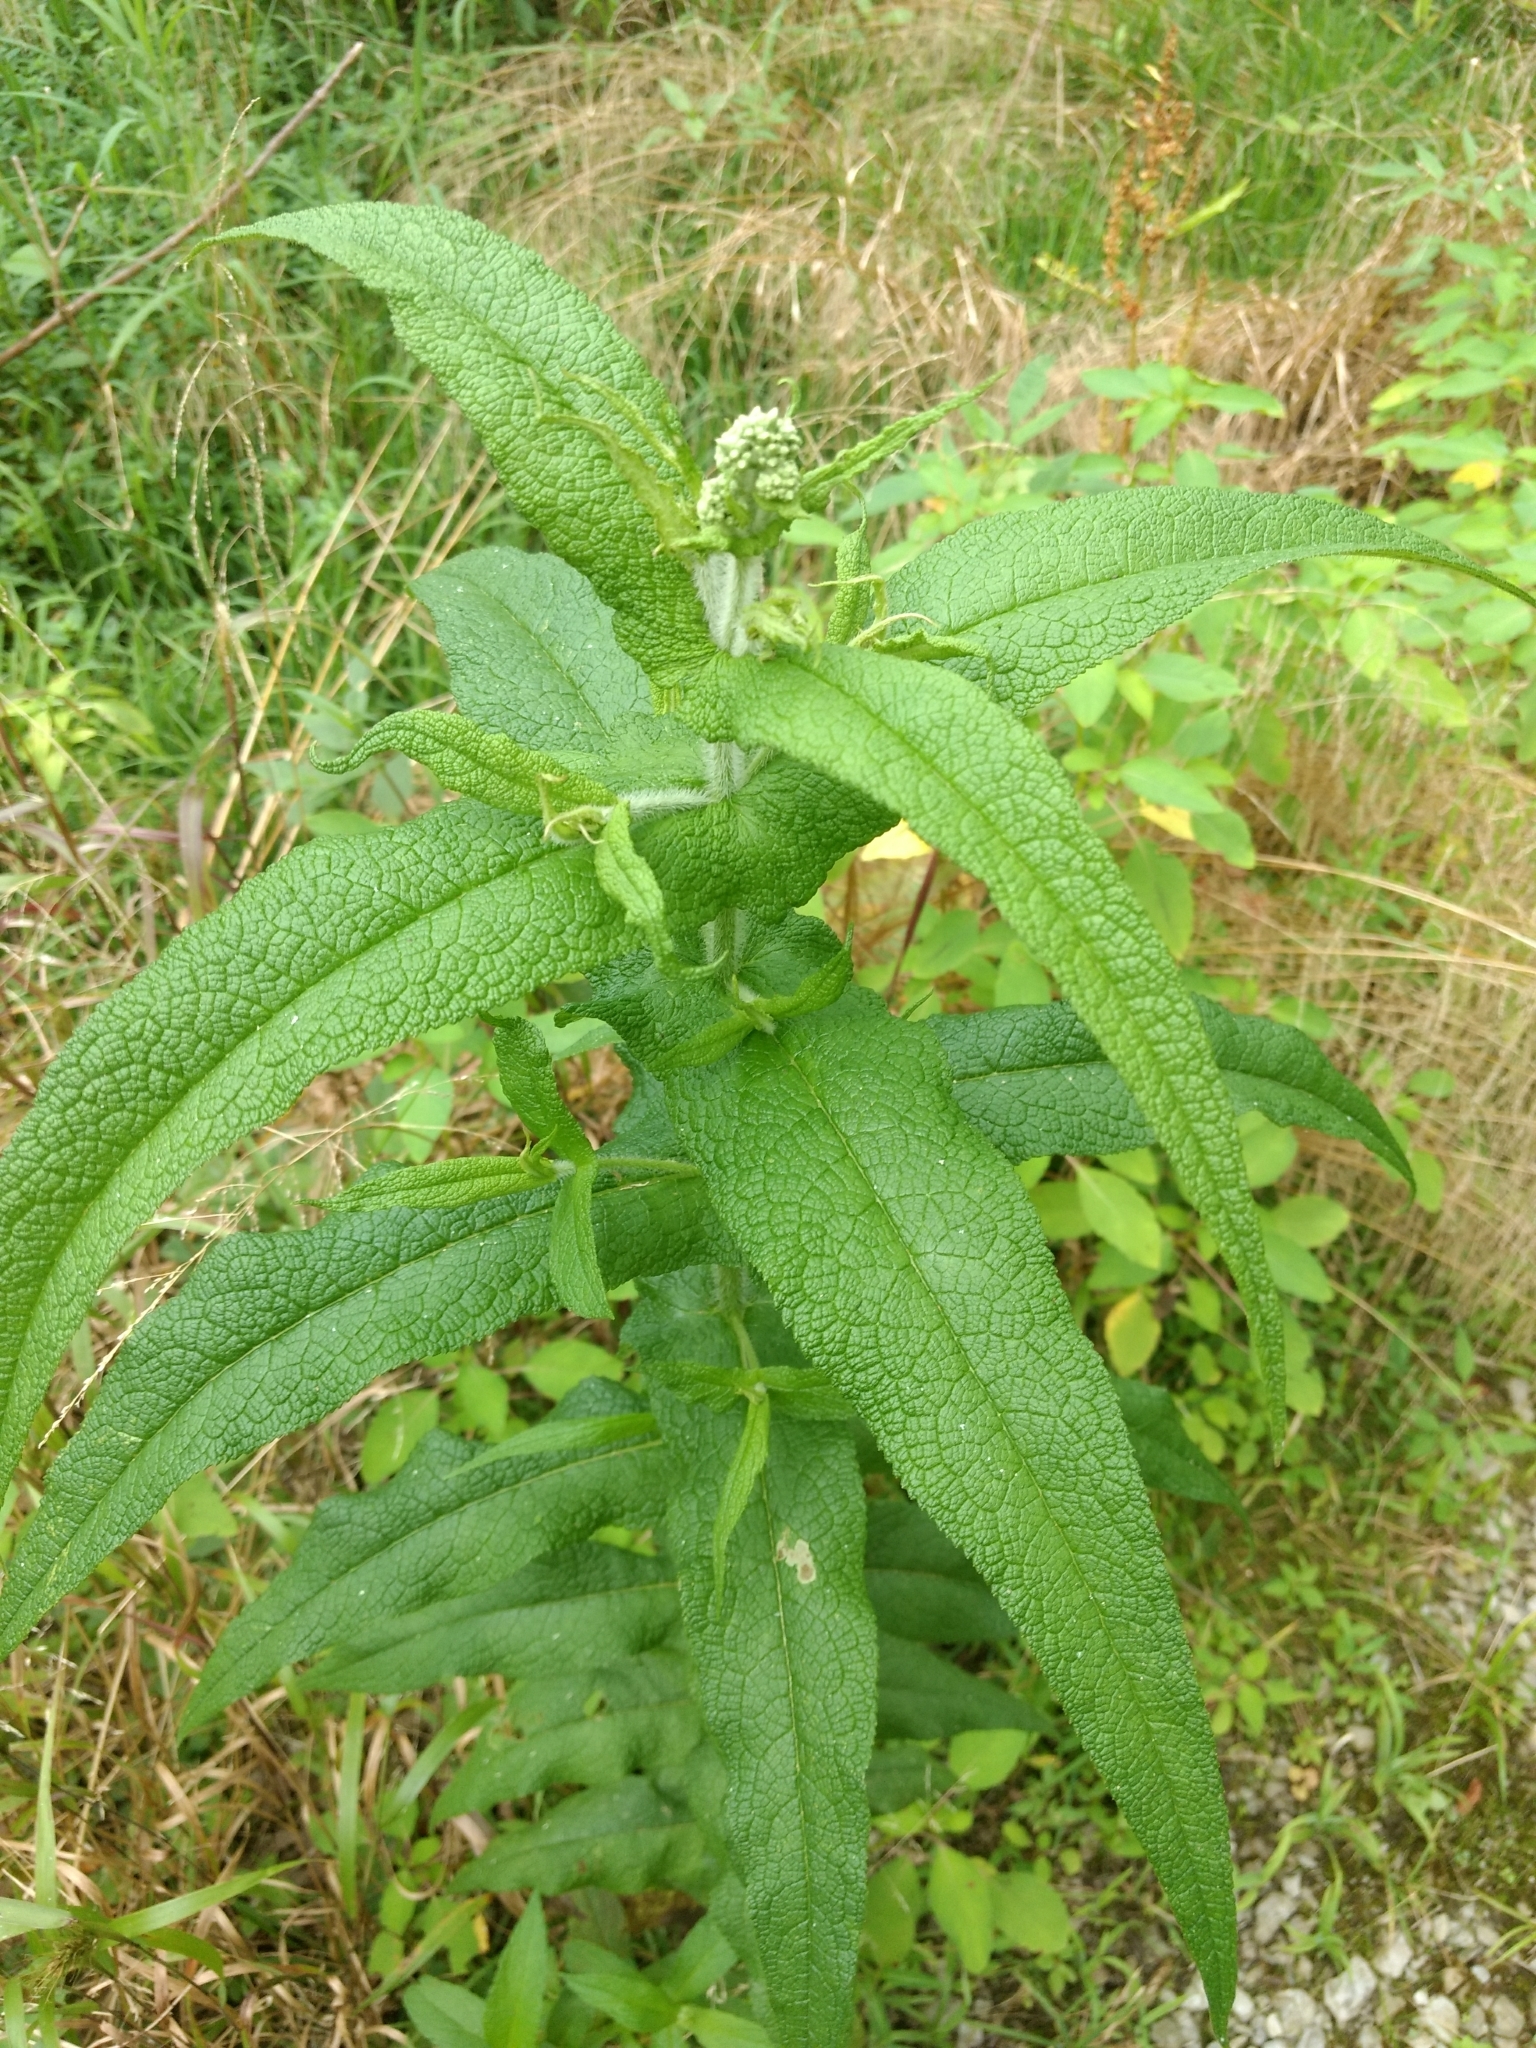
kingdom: Plantae
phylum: Tracheophyta
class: Magnoliopsida
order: Asterales
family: Asteraceae
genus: Eupatorium
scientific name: Eupatorium perfoliatum
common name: Boneset
